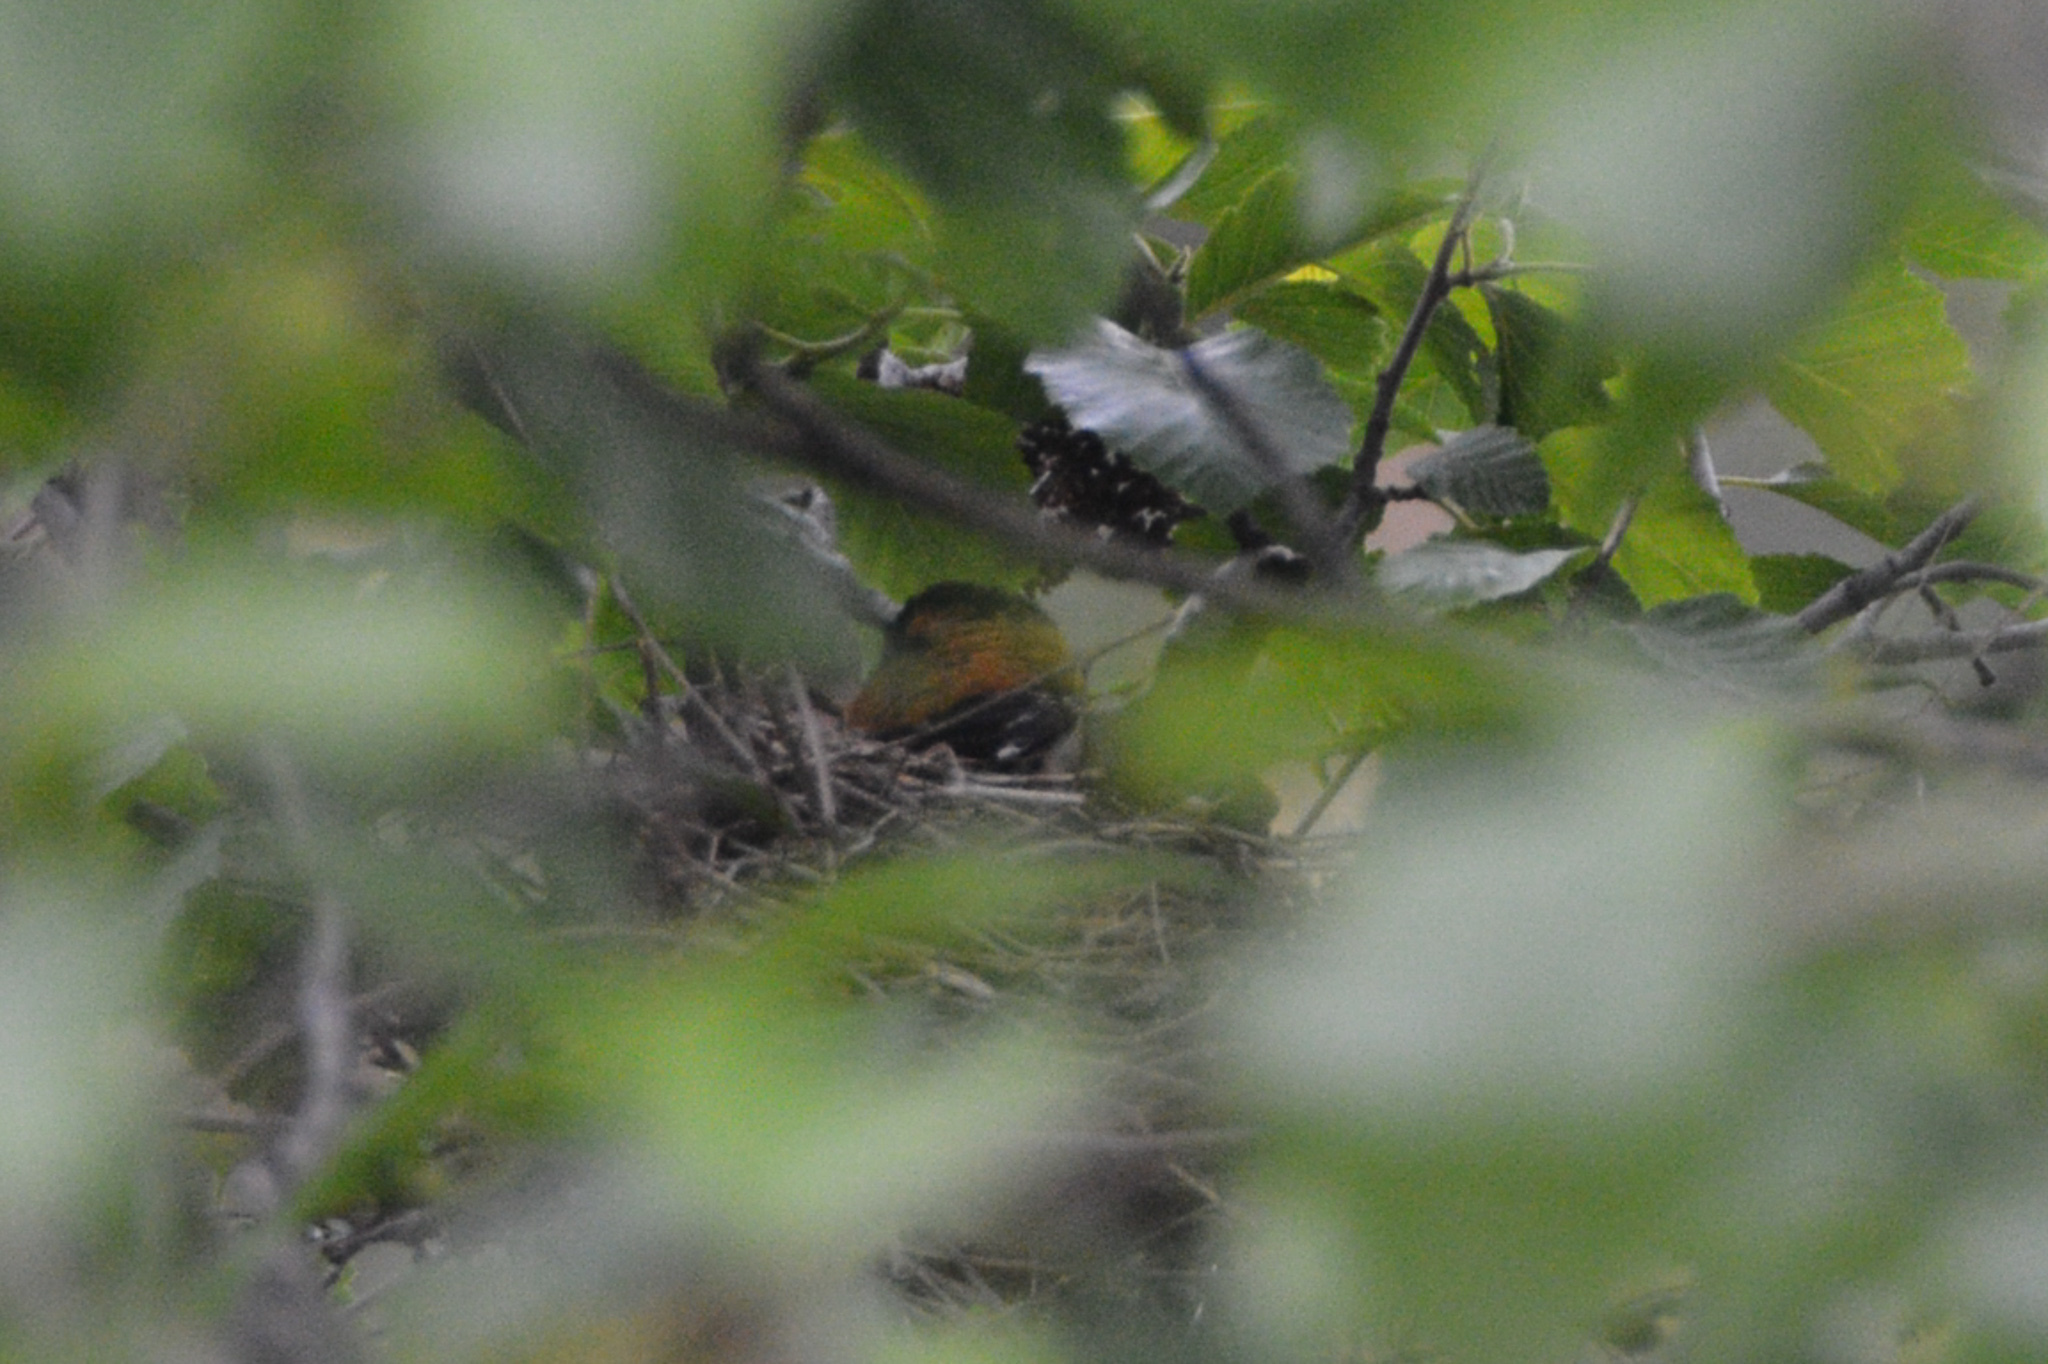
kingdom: Animalia
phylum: Chordata
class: Aves
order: Passeriformes
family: Cardinalidae
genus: Pheucticus
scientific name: Pheucticus melanocephalus
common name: Black-headed grosbeak
